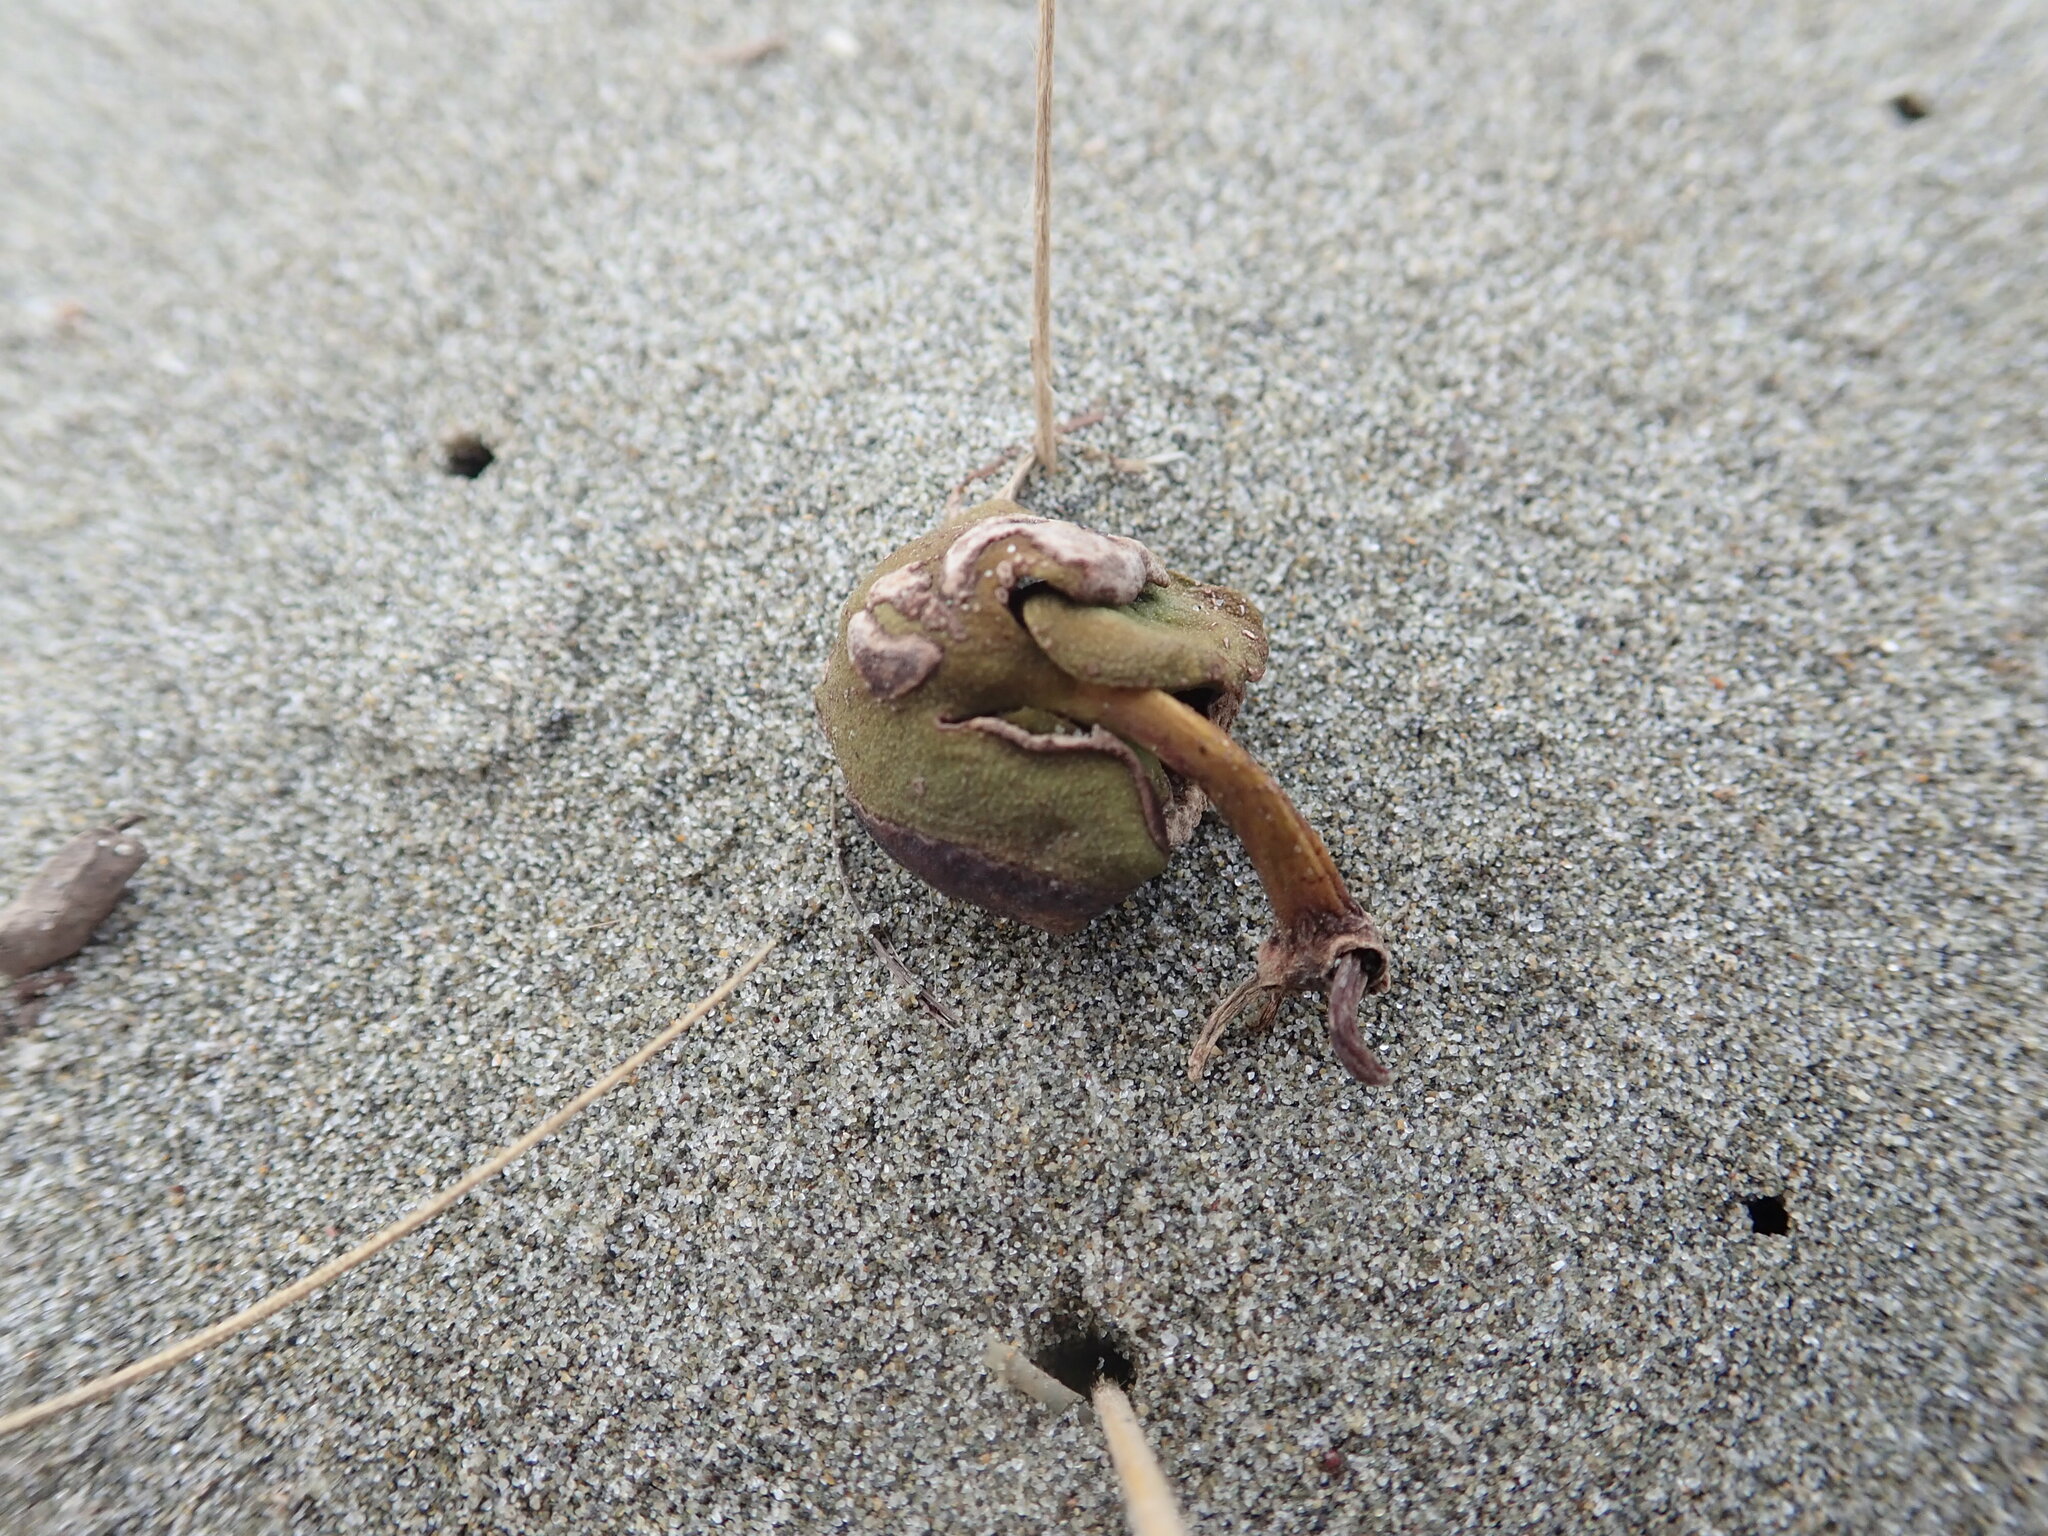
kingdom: Plantae
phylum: Tracheophyta
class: Magnoliopsida
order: Lamiales
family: Acanthaceae
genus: Avicennia
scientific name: Avicennia marina
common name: Gray mangrove
